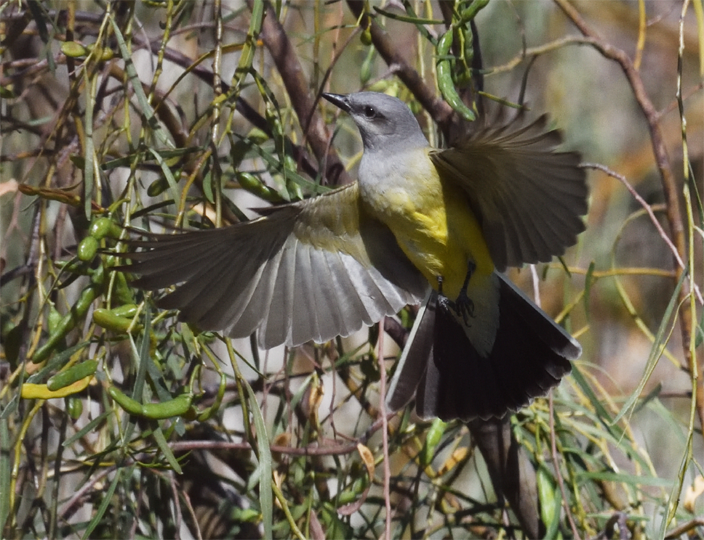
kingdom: Animalia
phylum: Chordata
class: Aves
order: Passeriformes
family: Tyrannidae
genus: Tyrannus
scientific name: Tyrannus verticalis
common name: Western kingbird
